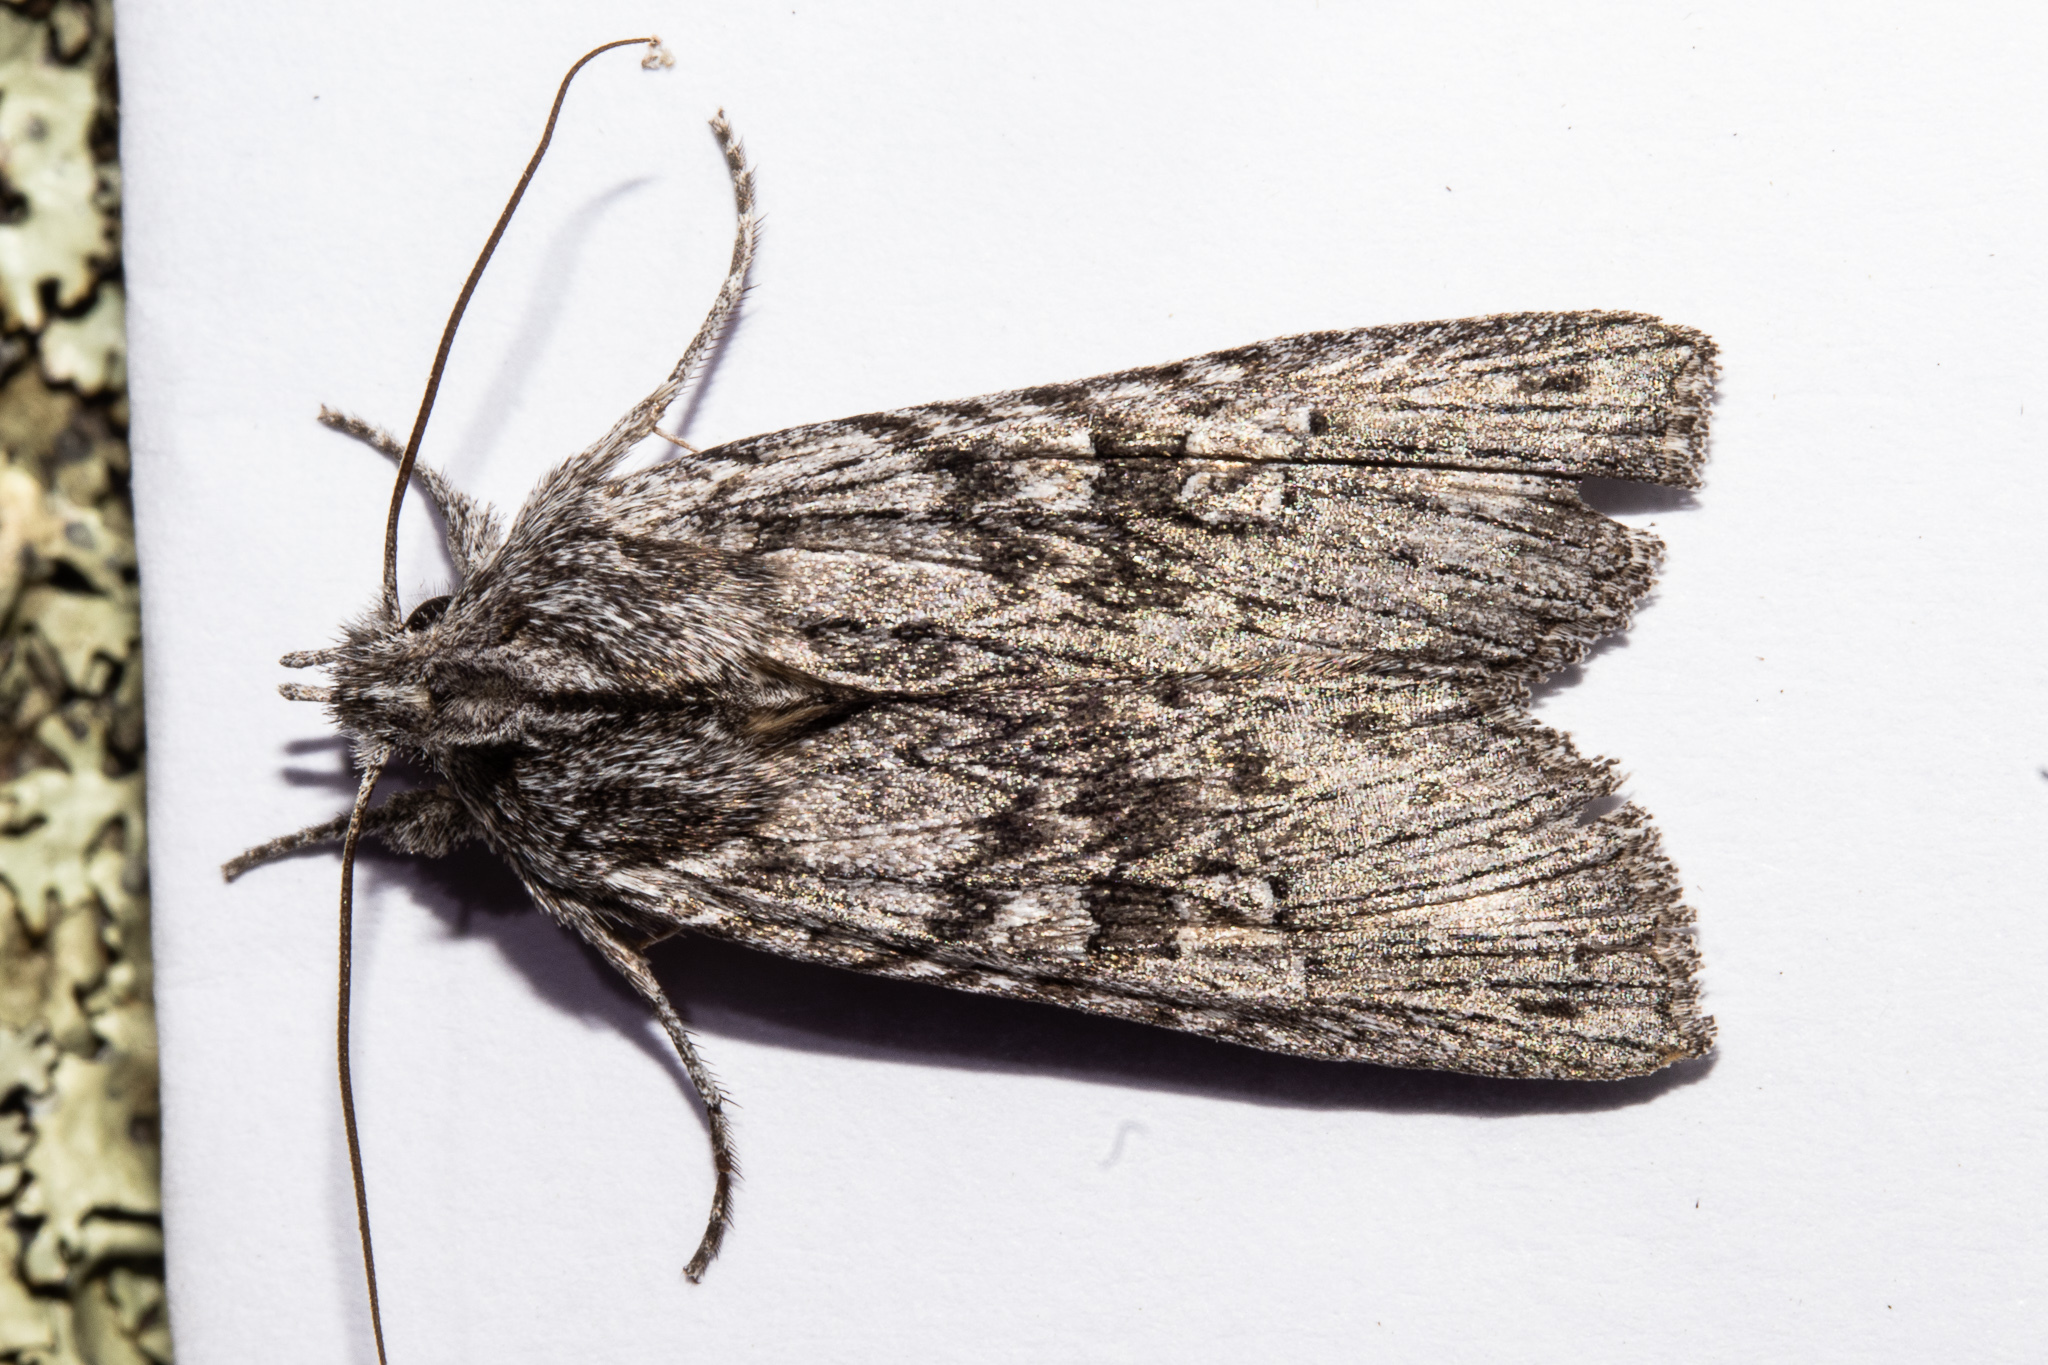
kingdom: Animalia
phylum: Arthropoda
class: Insecta
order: Lepidoptera
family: Noctuidae
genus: Physetica
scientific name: Physetica phricias
